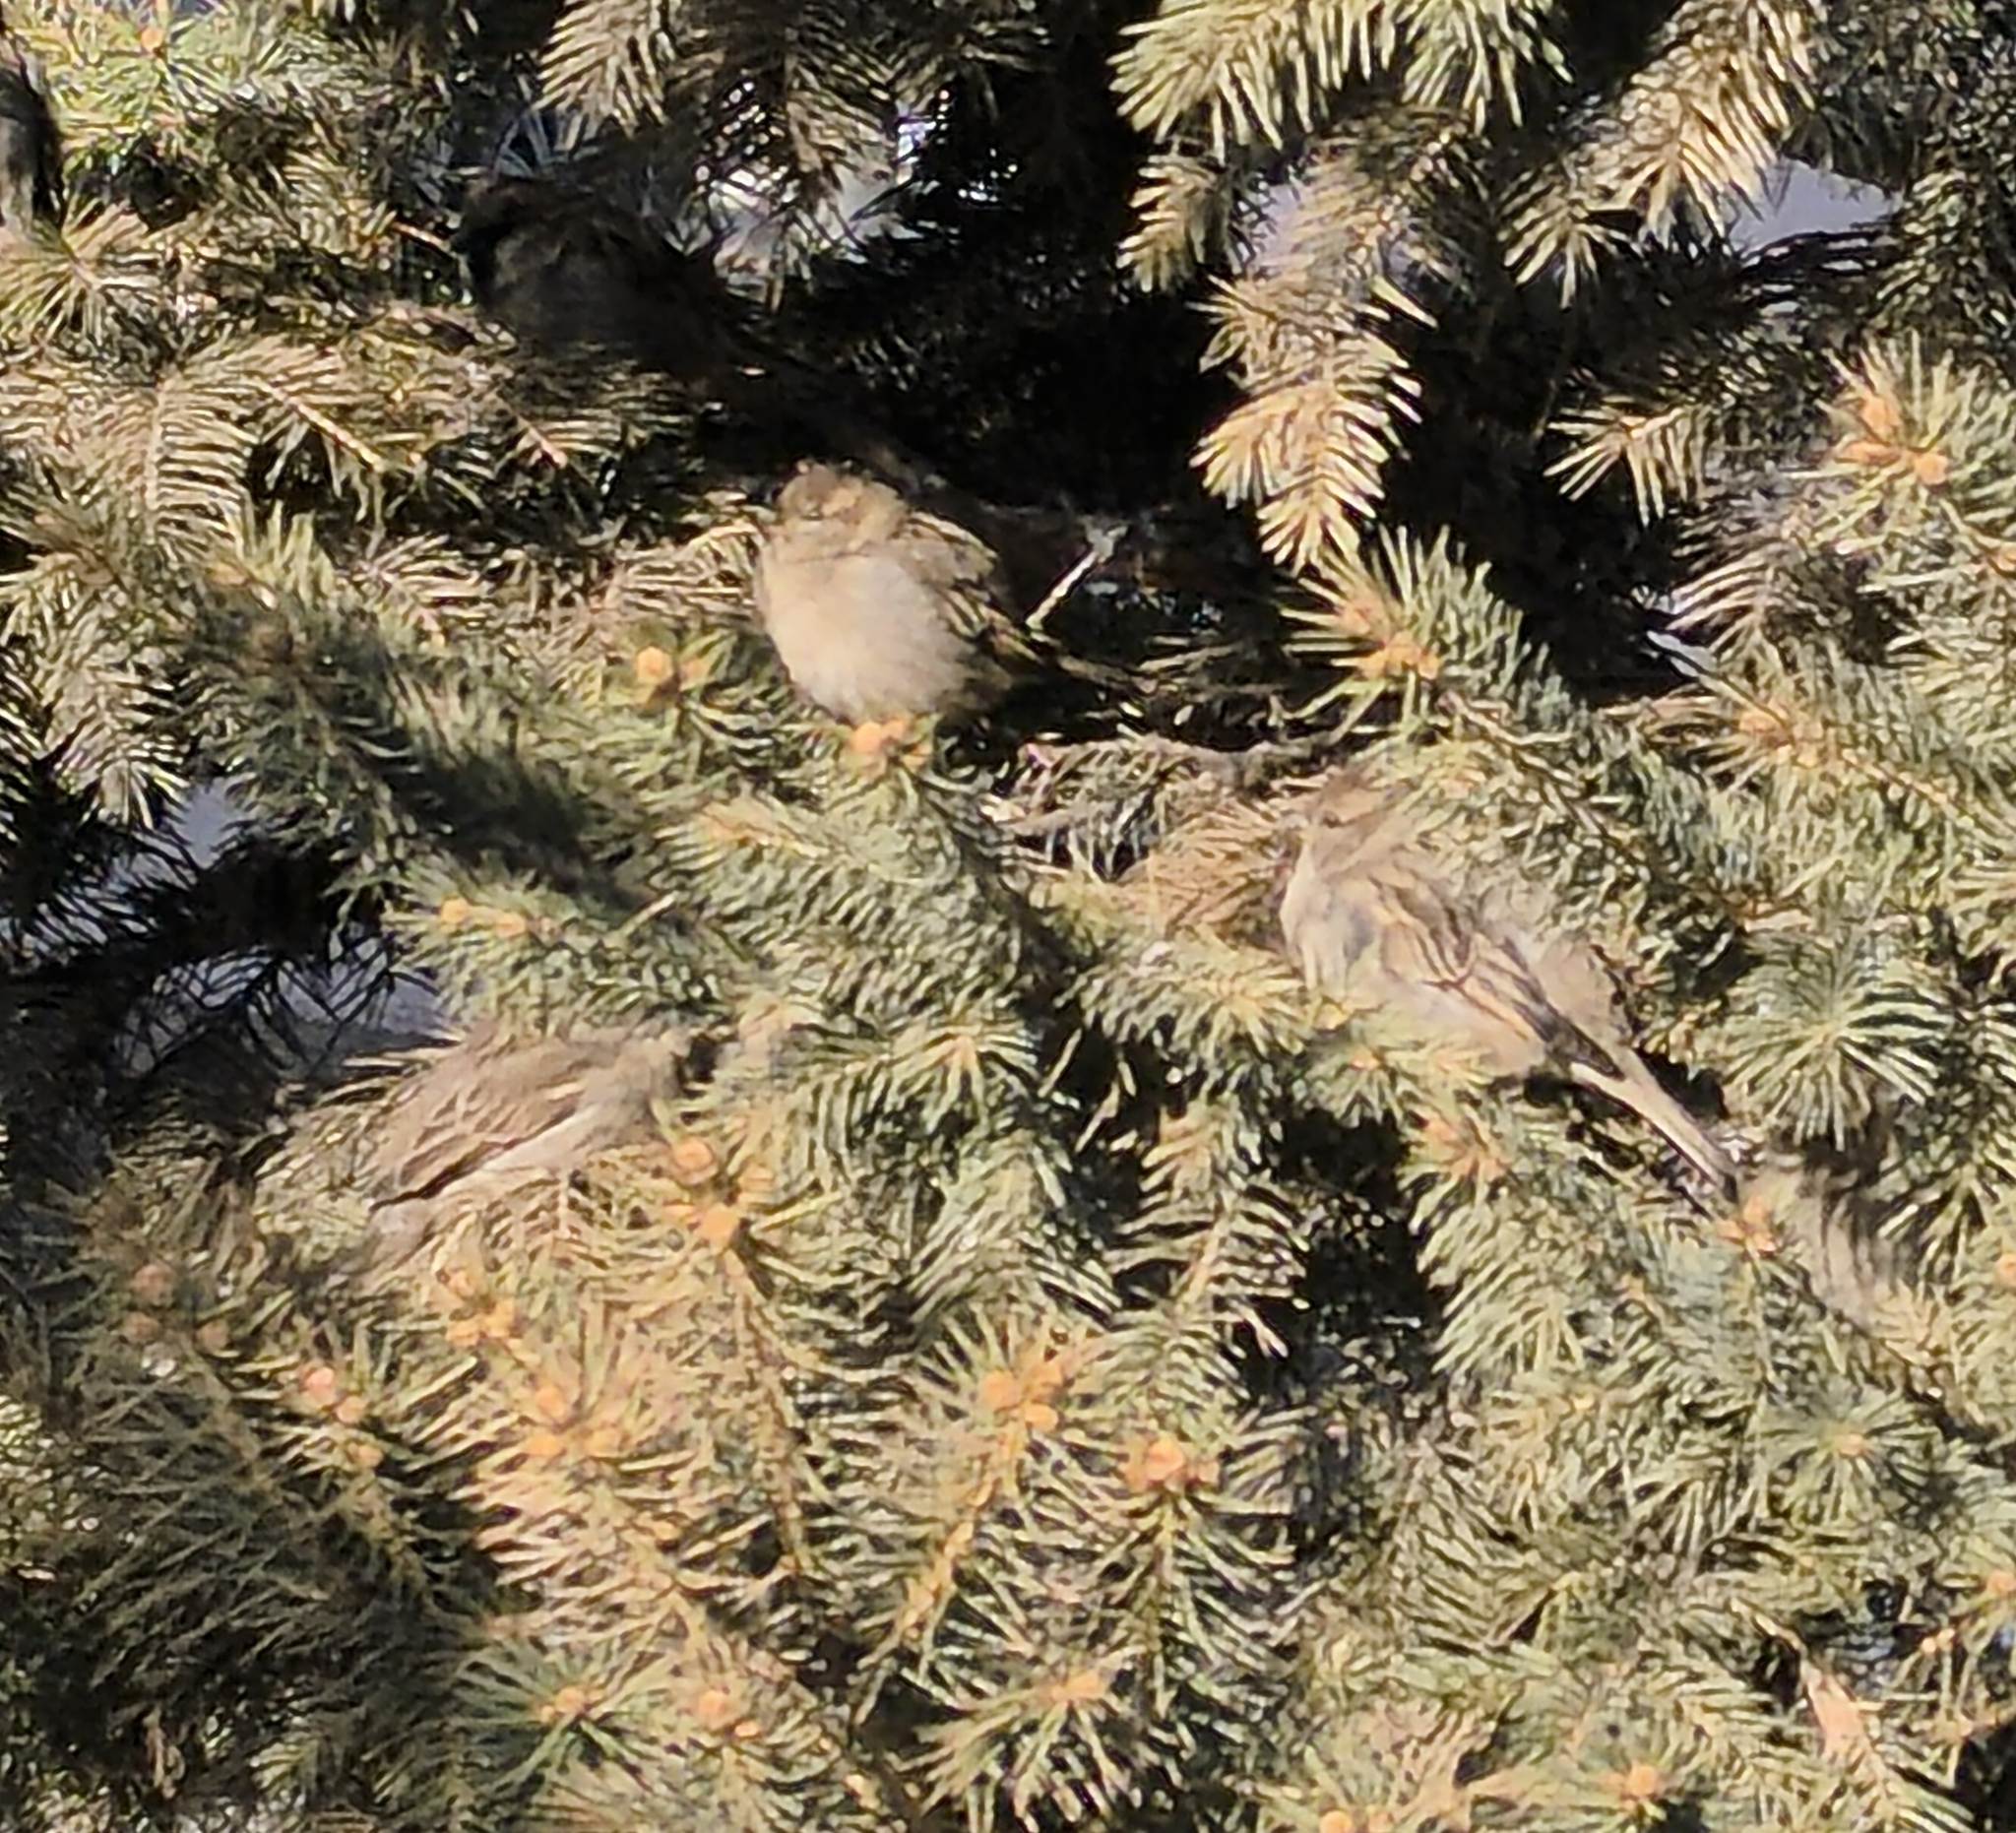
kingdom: Animalia
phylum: Chordata
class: Aves
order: Passeriformes
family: Passeridae
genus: Passer
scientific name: Passer domesticus
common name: House sparrow
